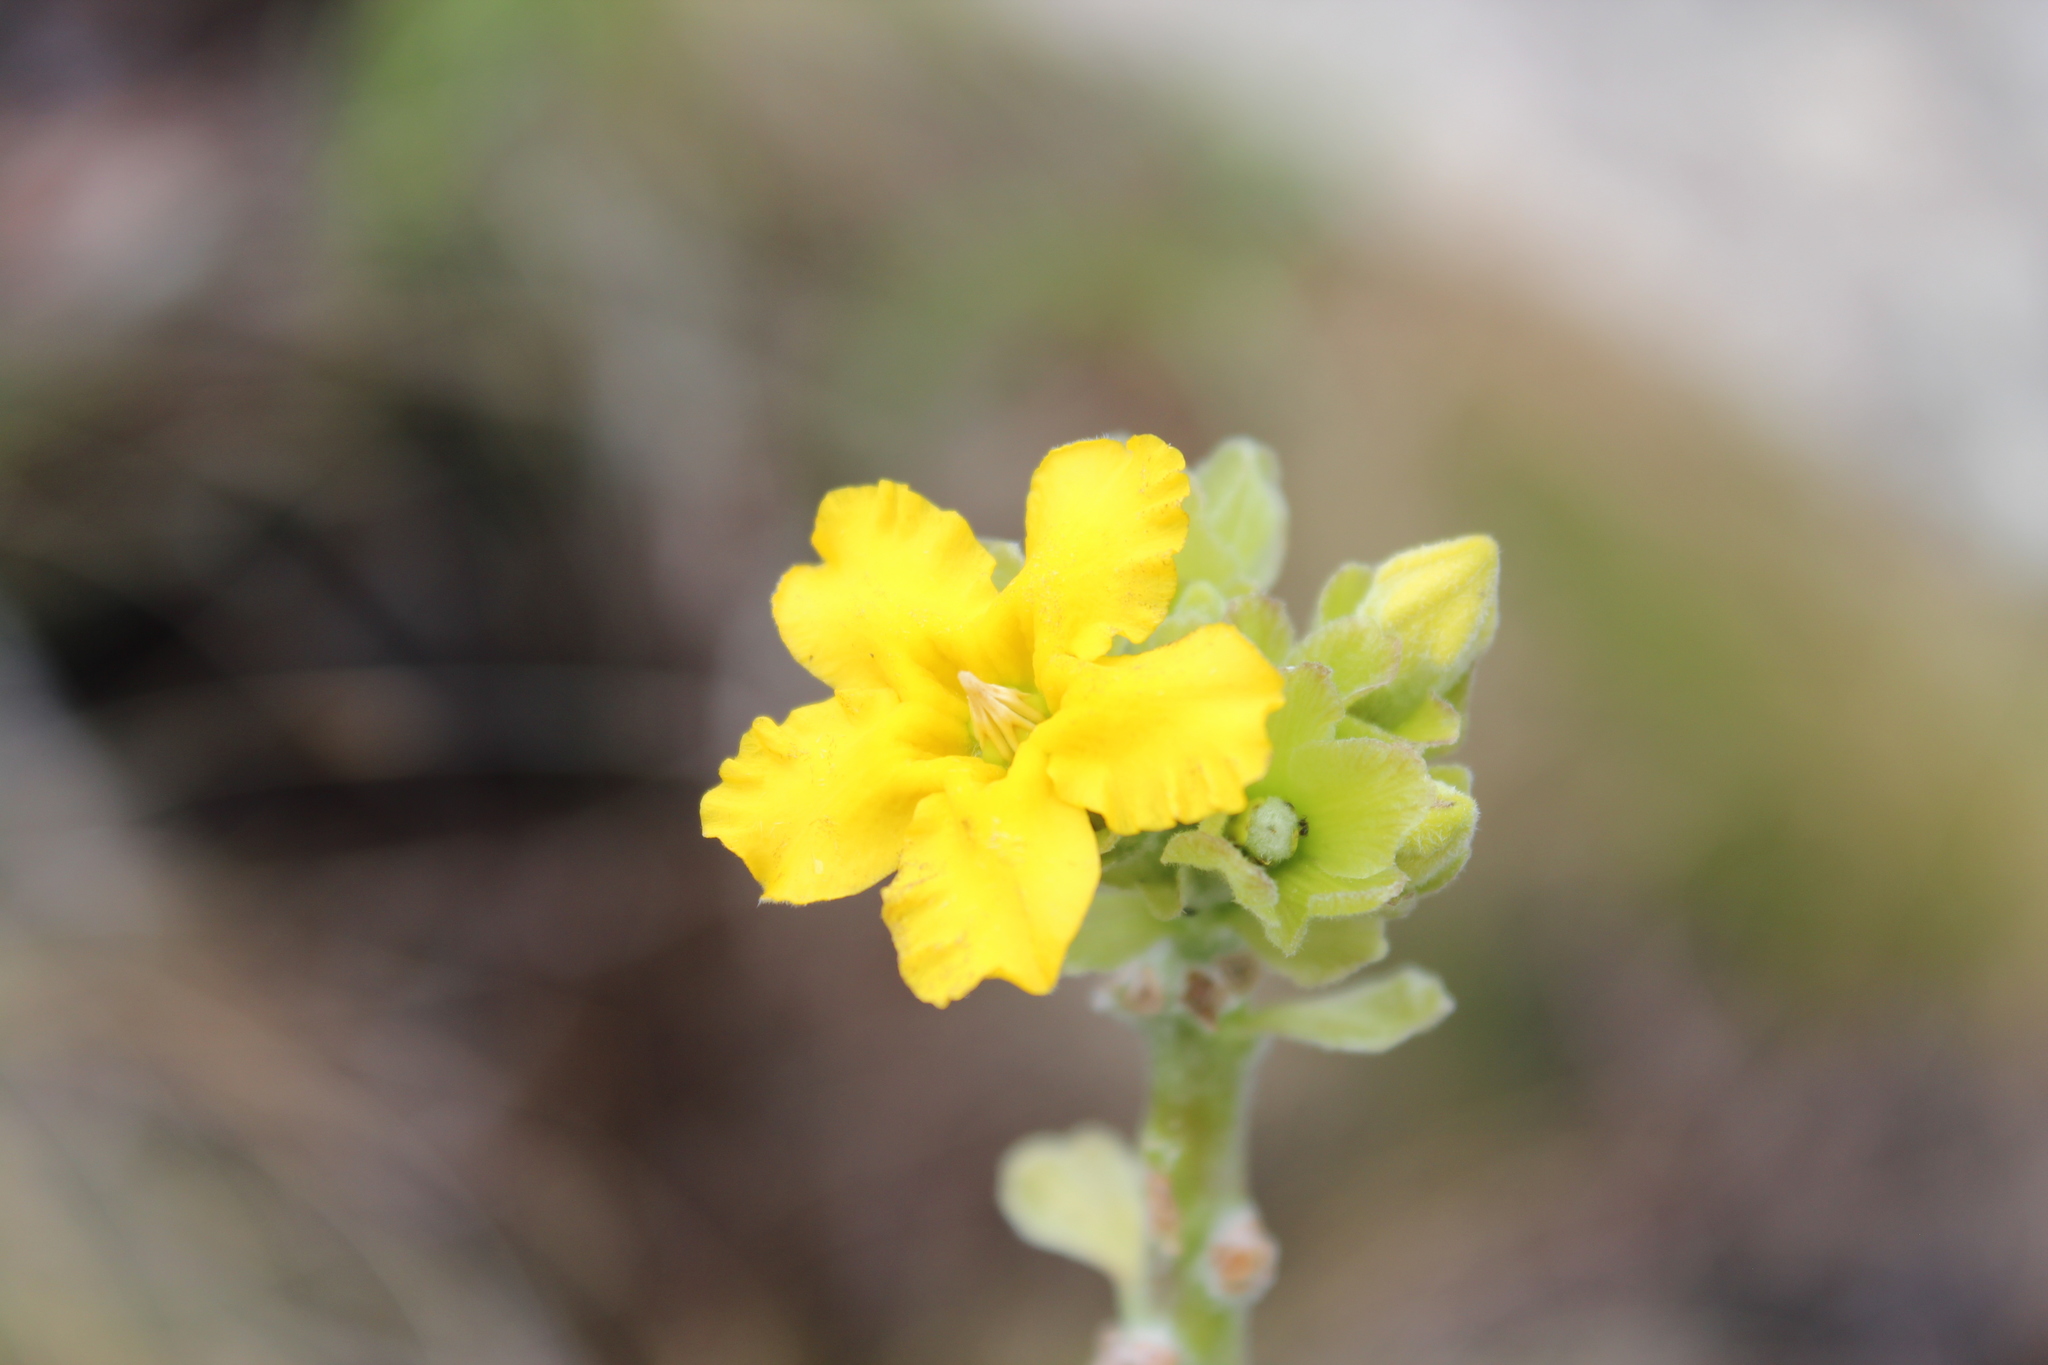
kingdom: Plantae
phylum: Tracheophyta
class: Magnoliopsida
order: Gentianales
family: Apocynaceae
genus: Pachypodium
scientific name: Pachypodium densiflorum
